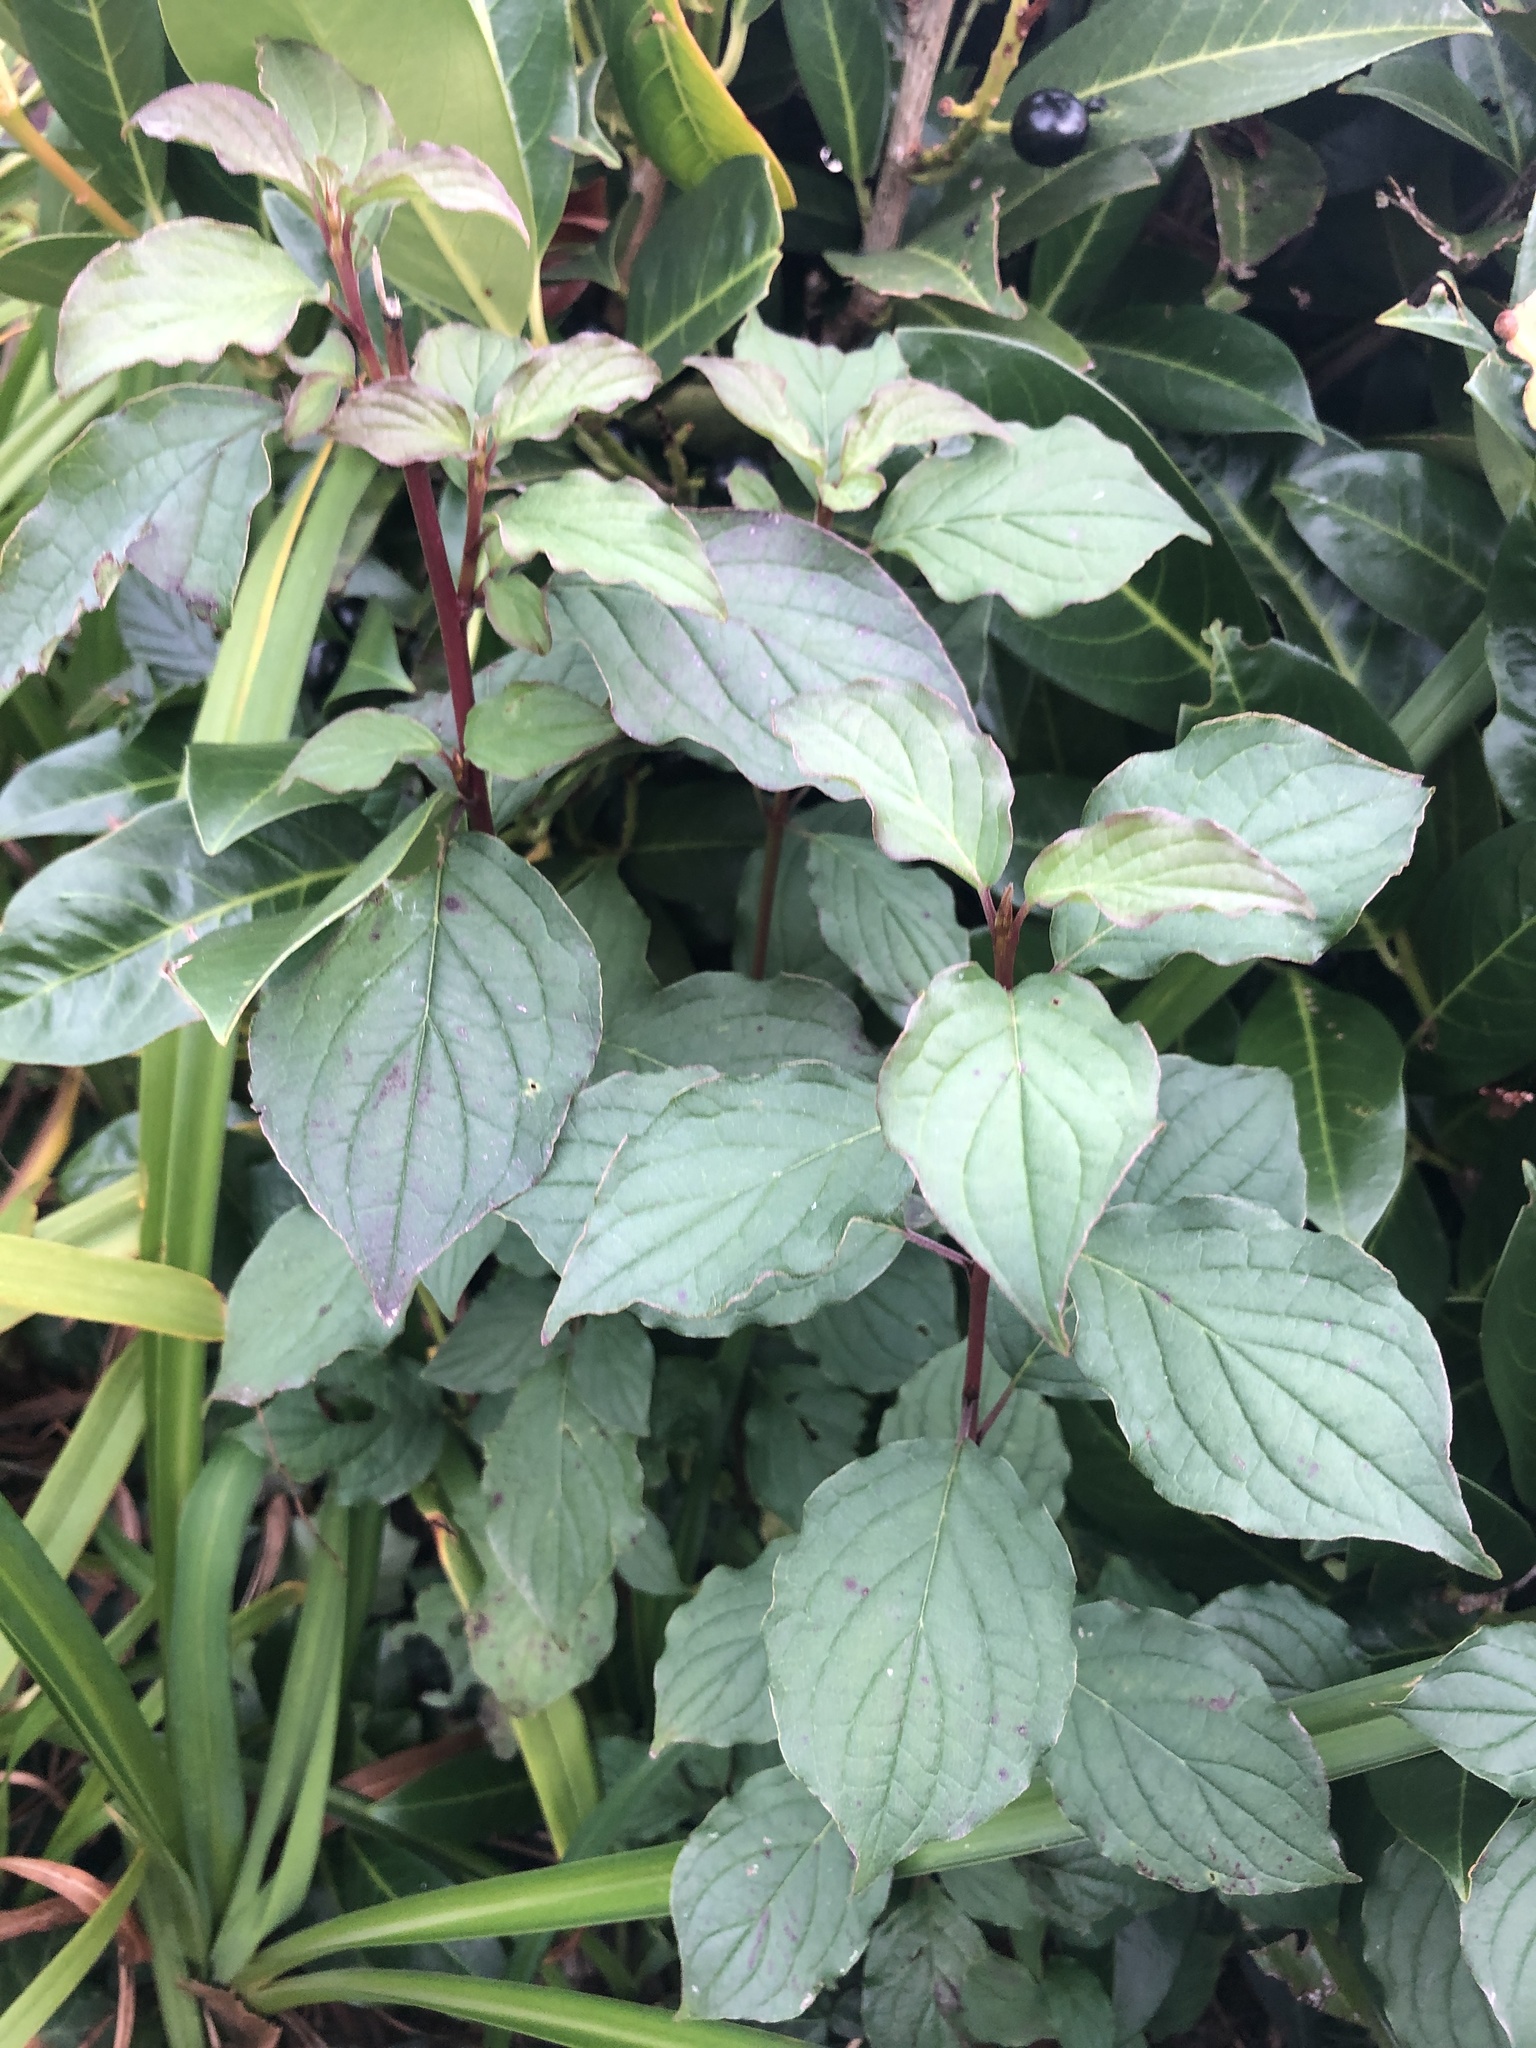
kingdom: Plantae
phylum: Tracheophyta
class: Magnoliopsida
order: Cornales
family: Cornaceae
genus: Cornus
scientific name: Cornus sanguinea
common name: Dogwood
